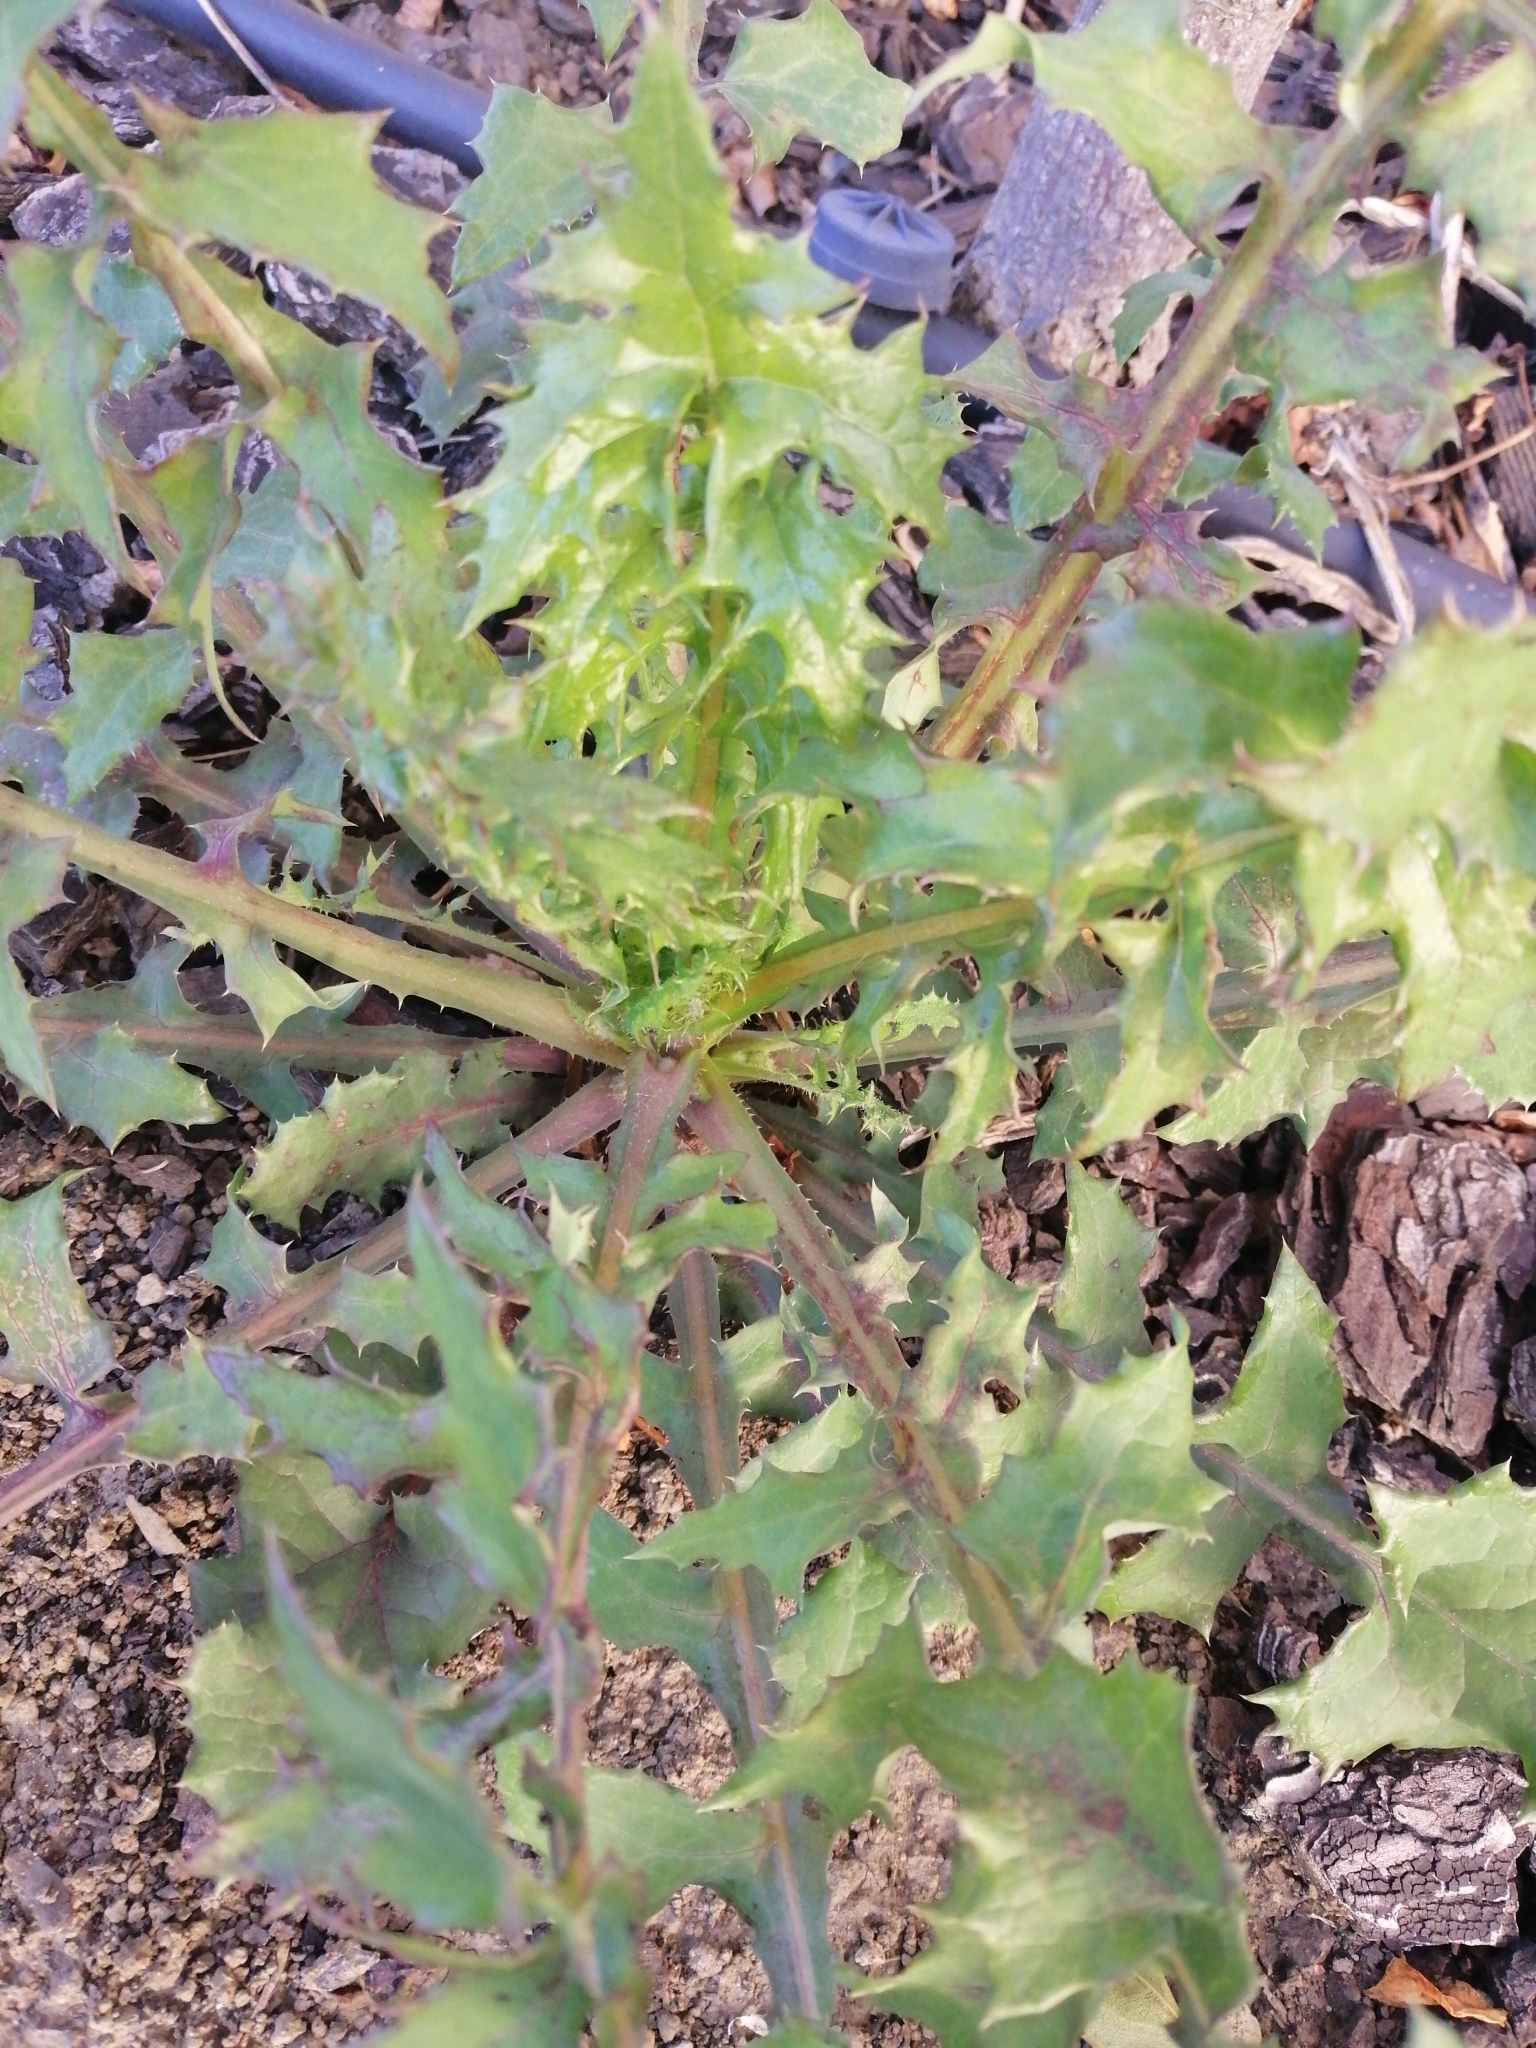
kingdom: Plantae
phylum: Tracheophyta
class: Magnoliopsida
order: Asterales
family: Asteraceae
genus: Sonchus
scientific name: Sonchus oleraceus
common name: Common sowthistle
